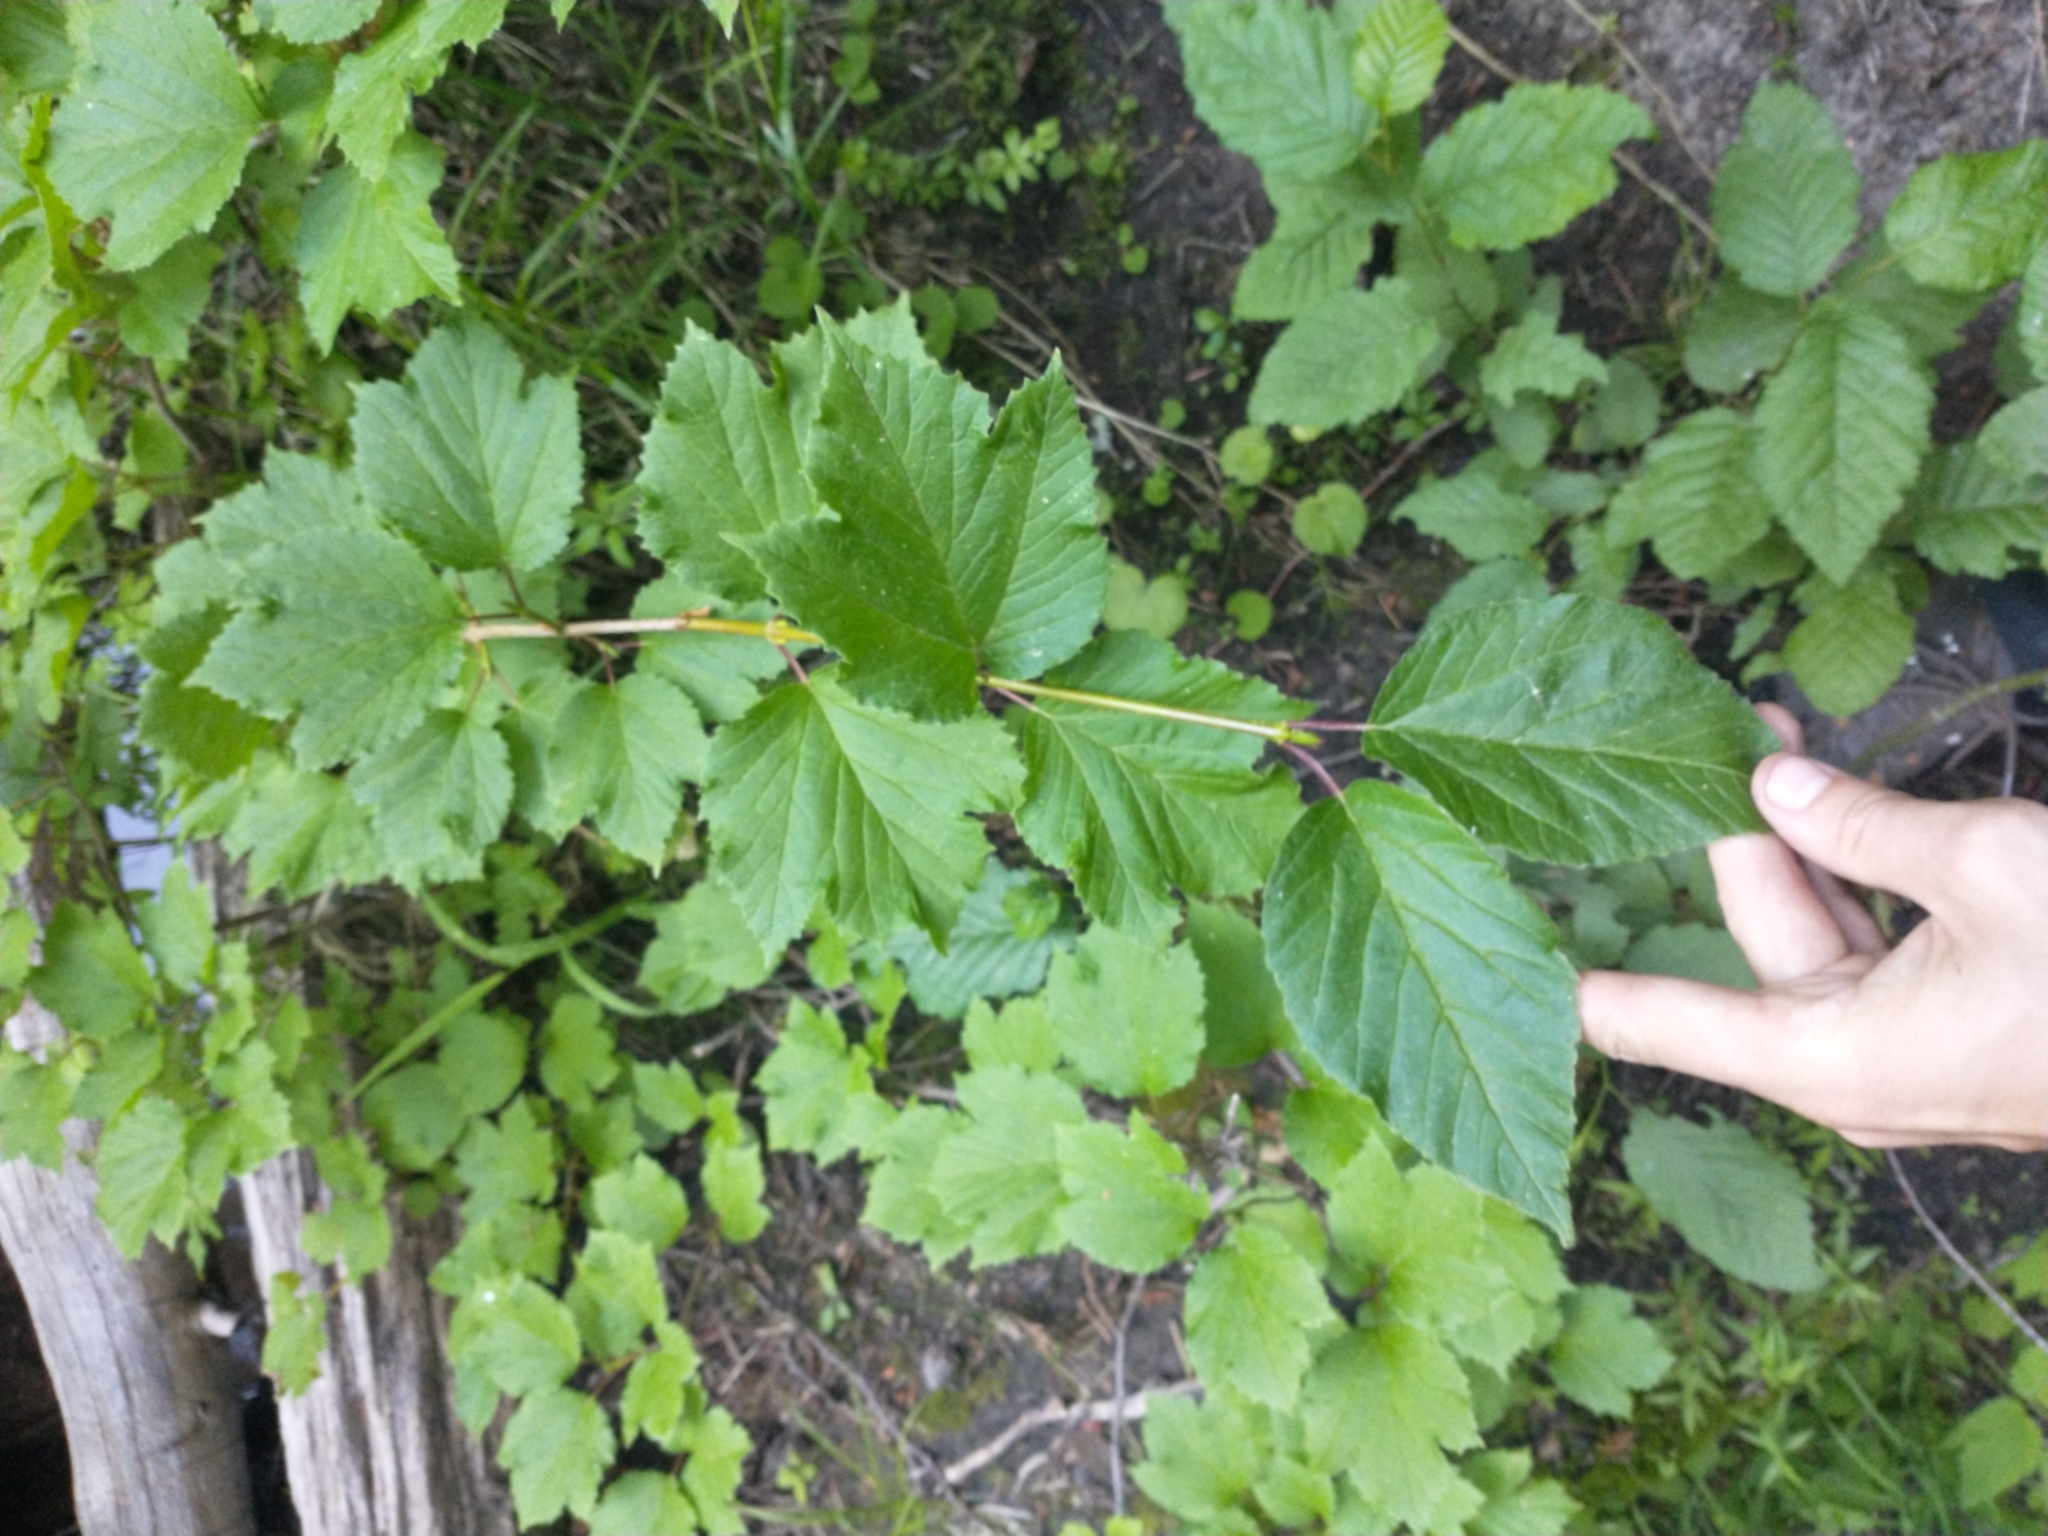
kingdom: Plantae
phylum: Tracheophyta
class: Magnoliopsida
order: Dipsacales
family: Viburnaceae
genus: Viburnum
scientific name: Viburnum edule
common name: Mooseberry
